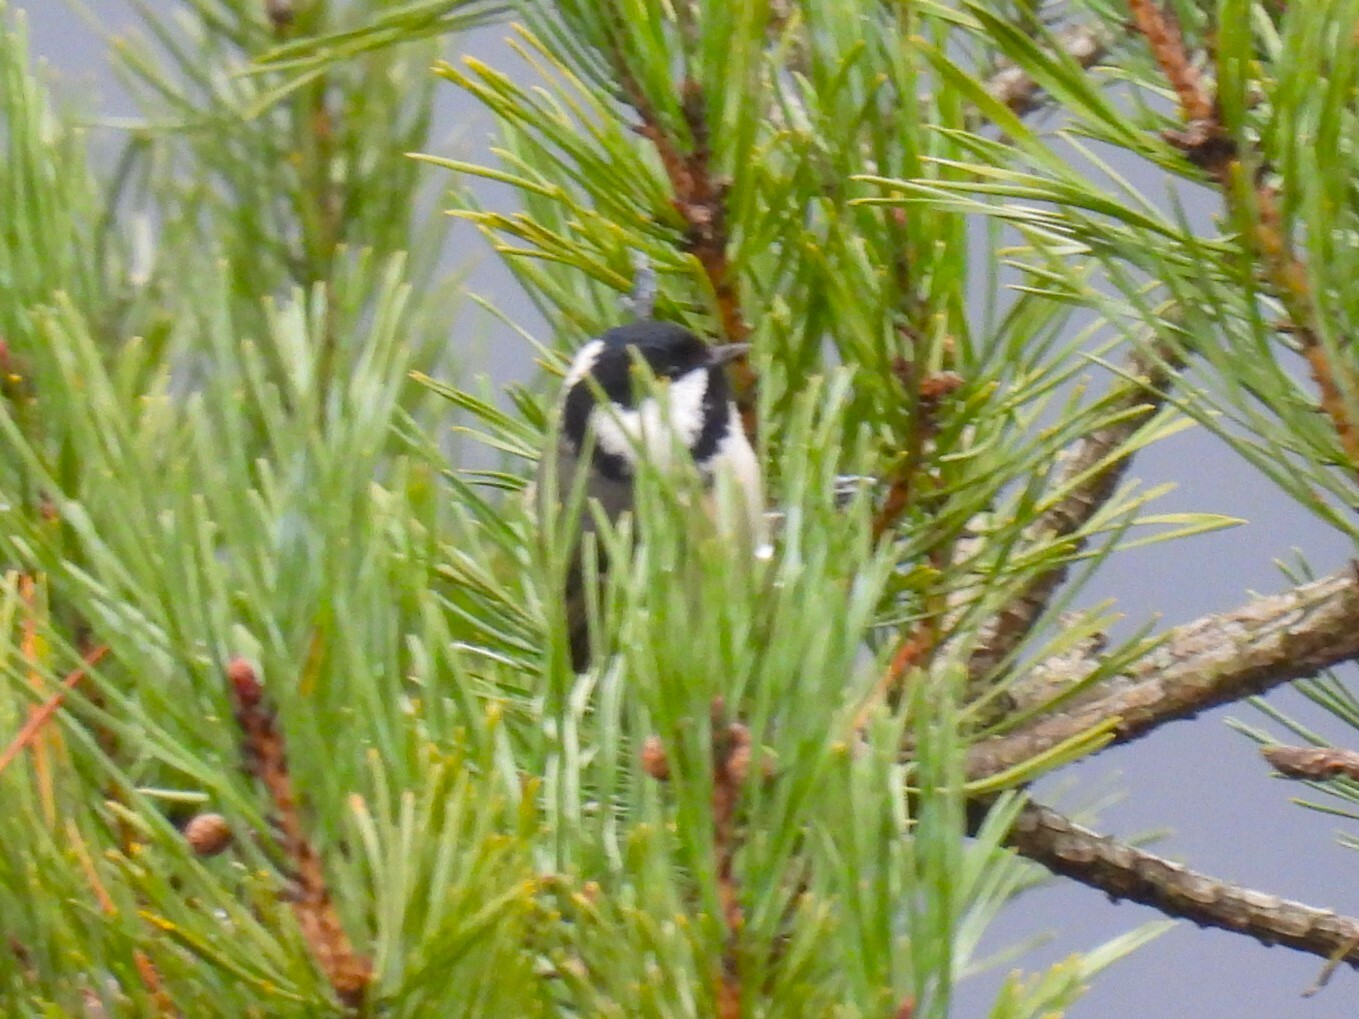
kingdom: Animalia
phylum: Chordata
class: Aves
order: Passeriformes
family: Paridae
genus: Periparus
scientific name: Periparus ater
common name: Coal tit
